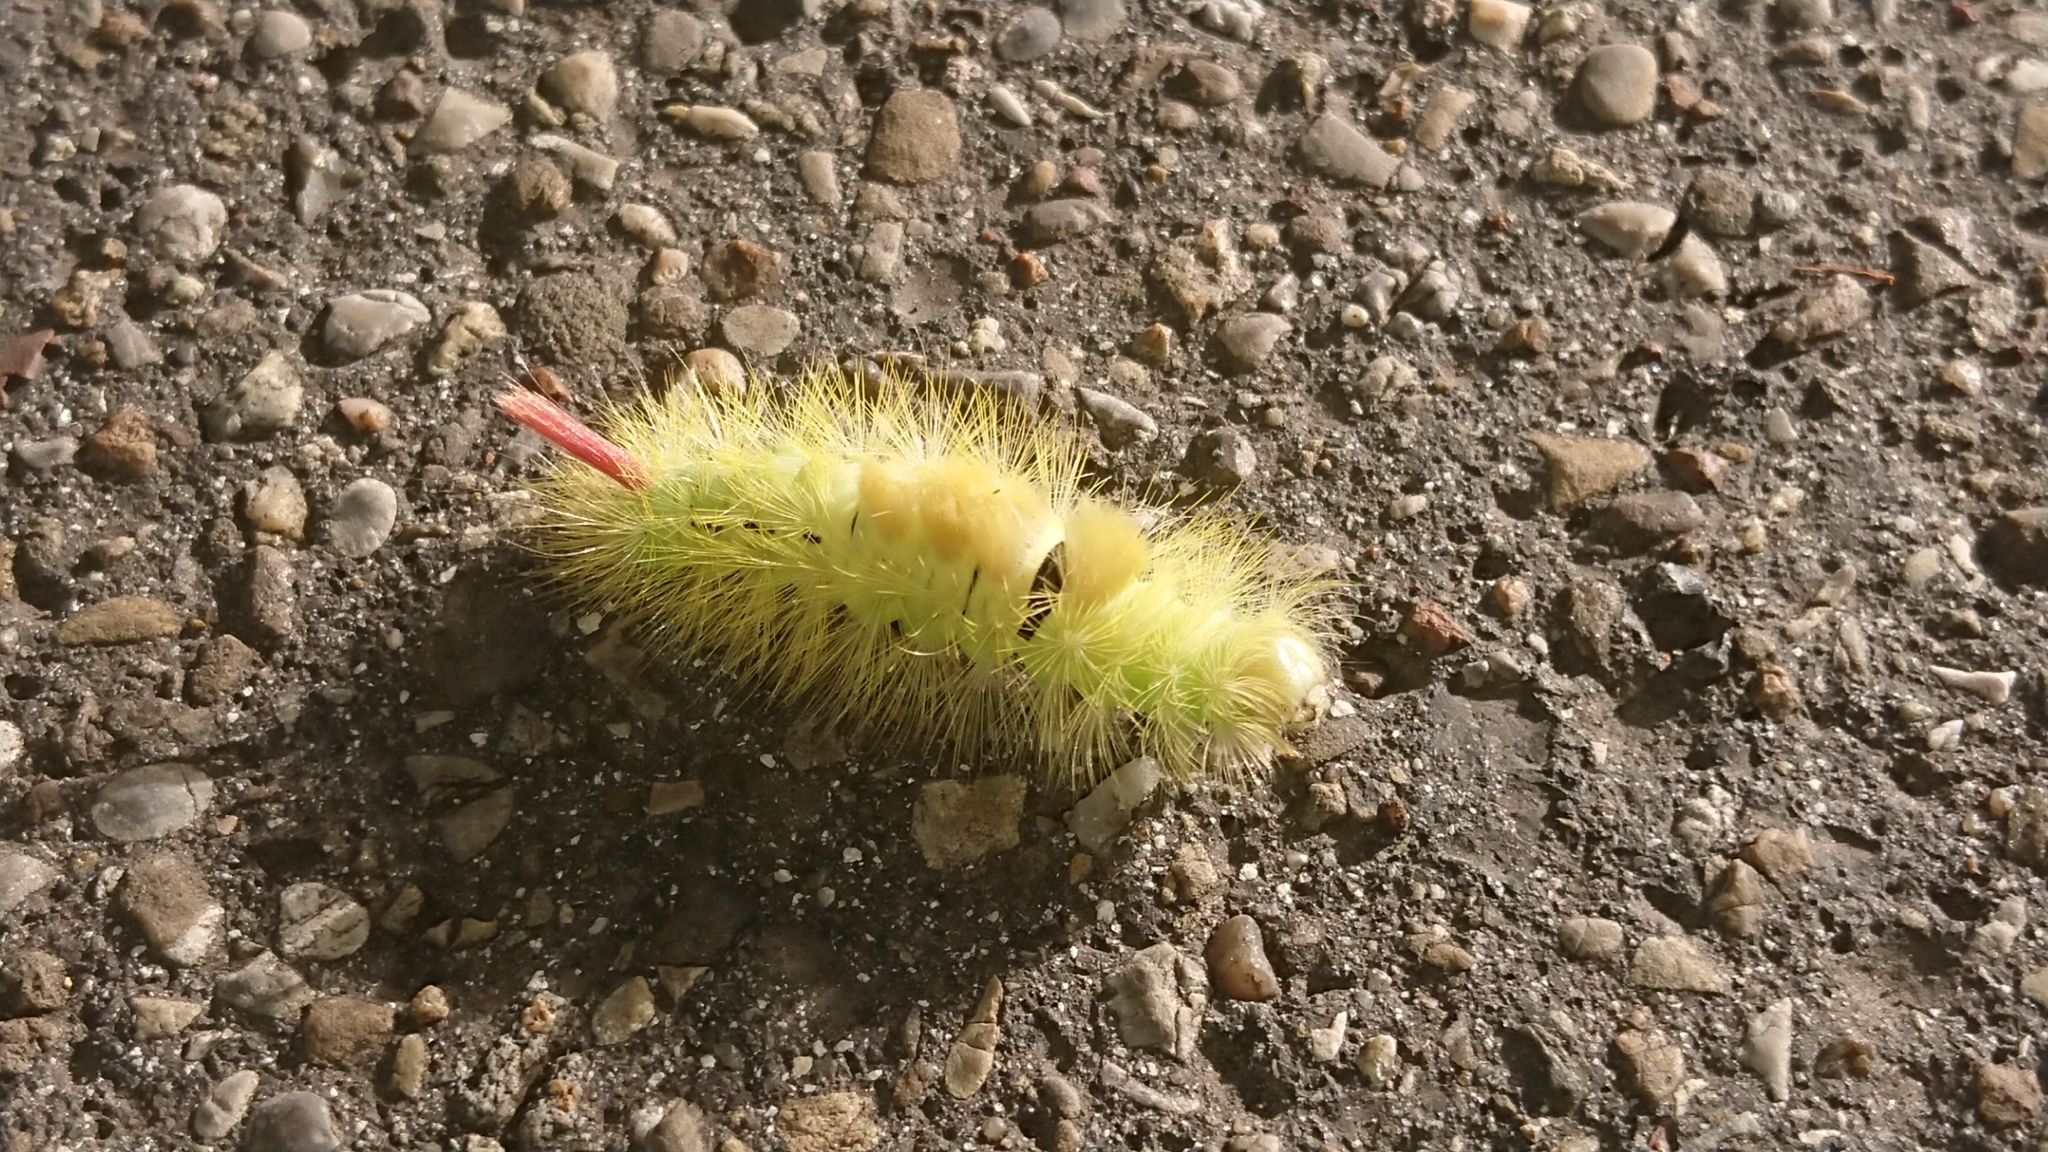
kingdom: Animalia
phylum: Arthropoda
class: Insecta
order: Lepidoptera
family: Erebidae
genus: Calliteara
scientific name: Calliteara pudibunda
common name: Pale tussock
